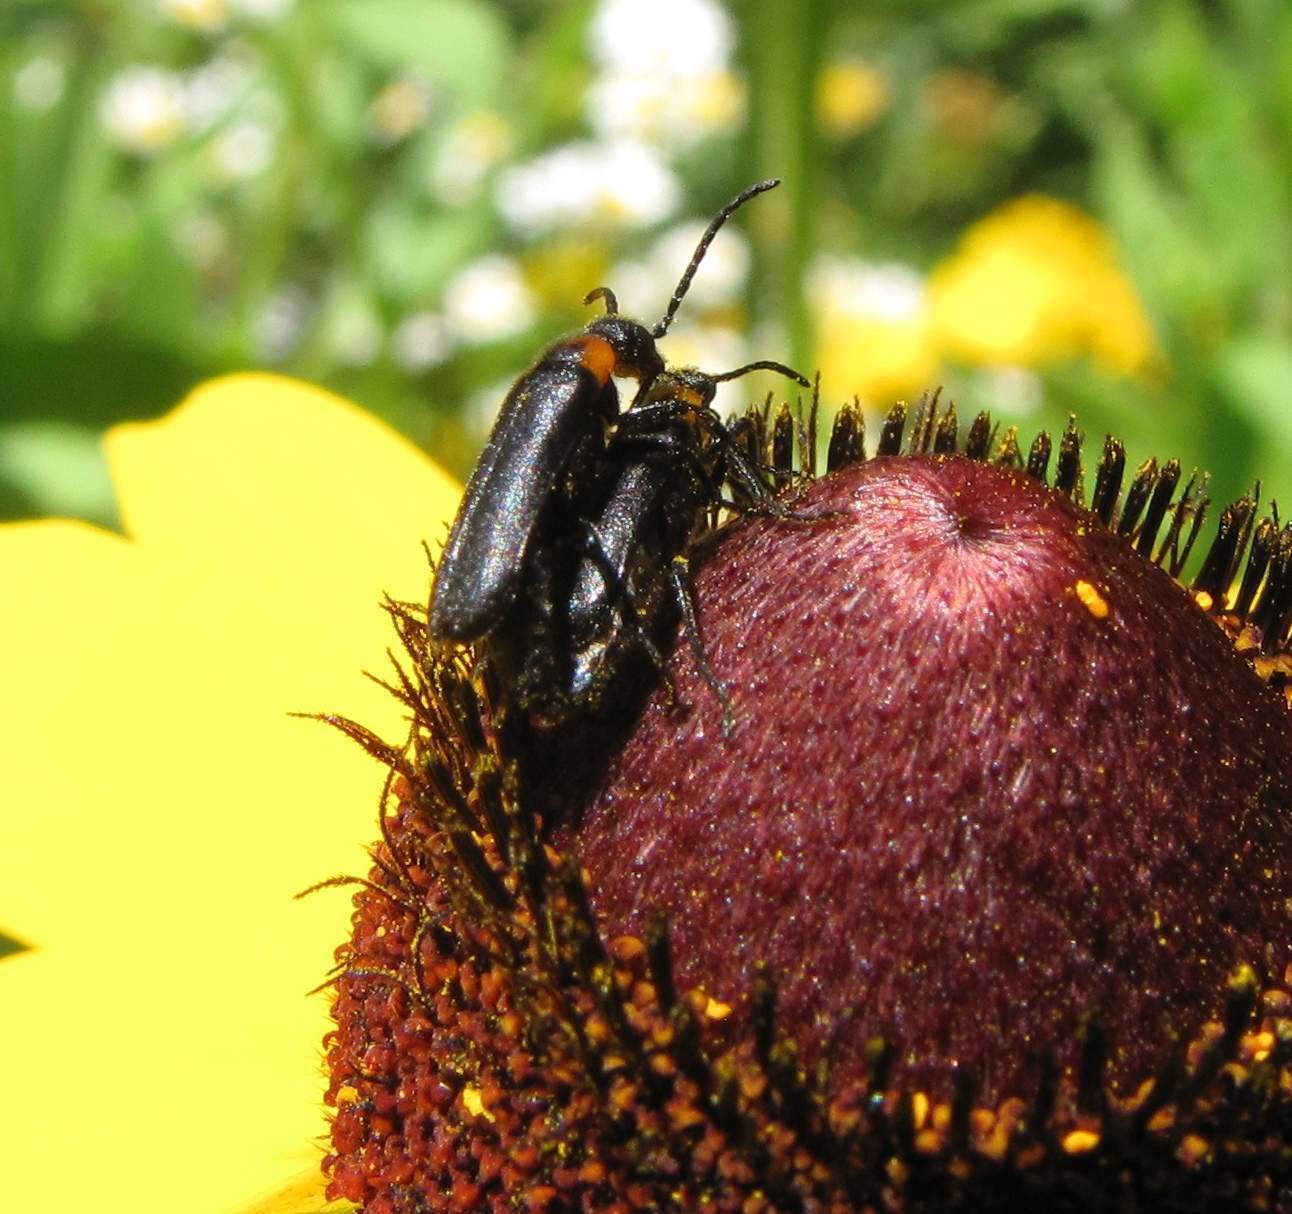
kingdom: Animalia
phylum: Arthropoda
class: Insecta
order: Coleoptera
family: Meloidae
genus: Nemognatha
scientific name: Nemognatha nemorensis
